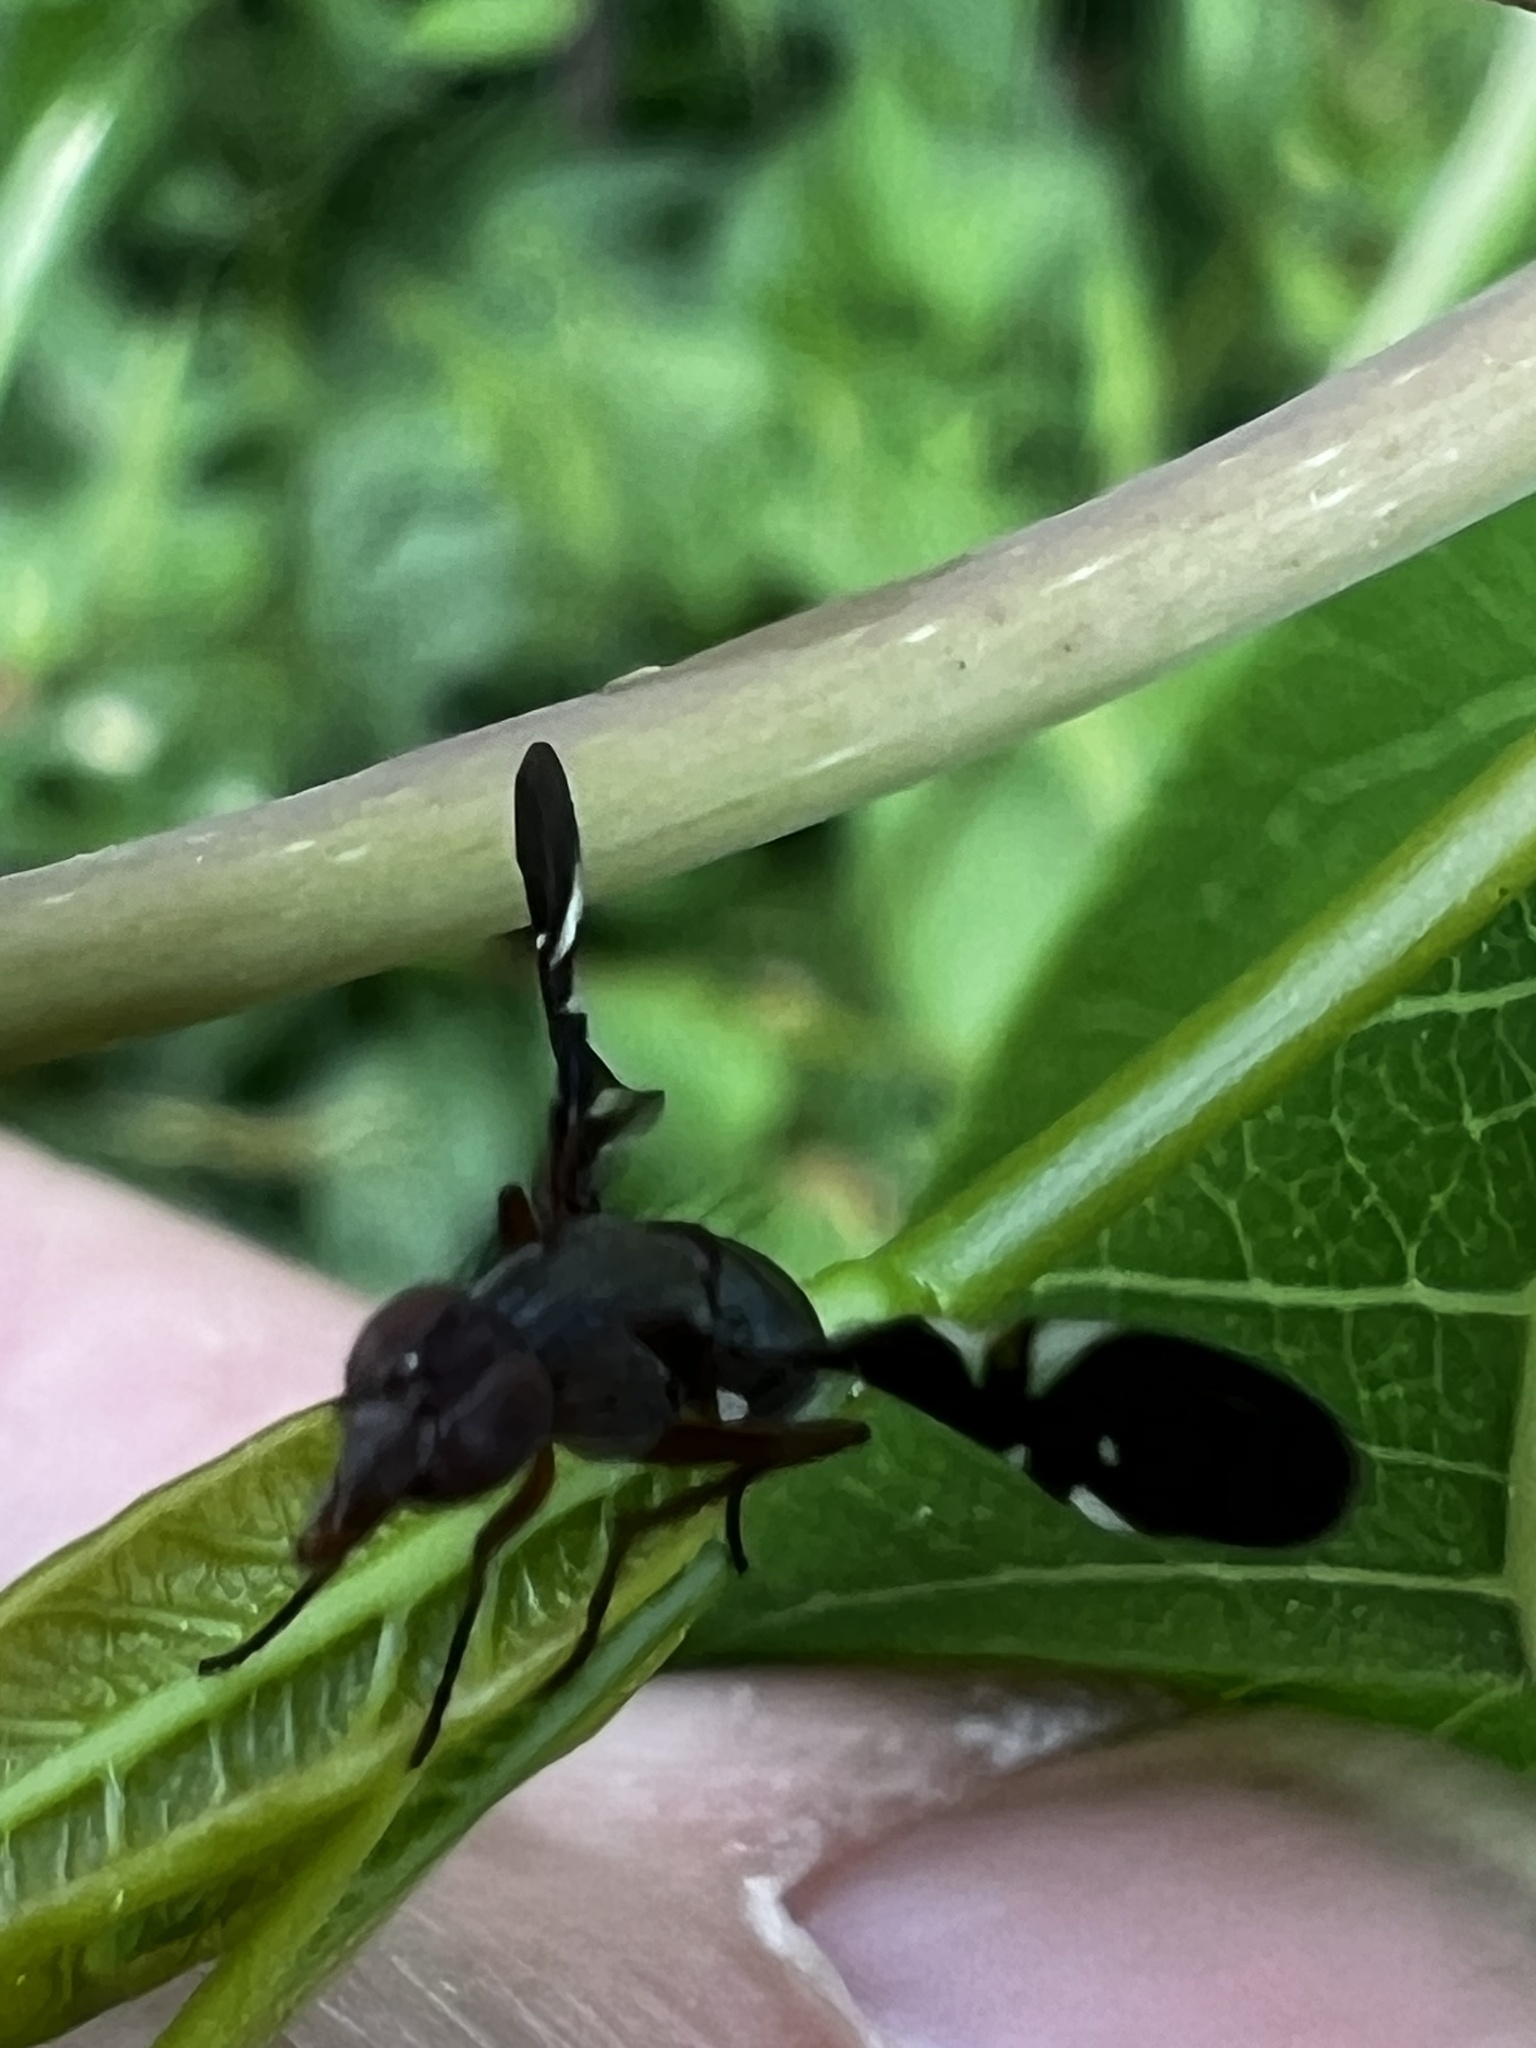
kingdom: Animalia
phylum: Arthropoda
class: Insecta
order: Diptera
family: Ulidiidae
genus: Delphinia
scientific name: Delphinia picta
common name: Common picture-winged fly
